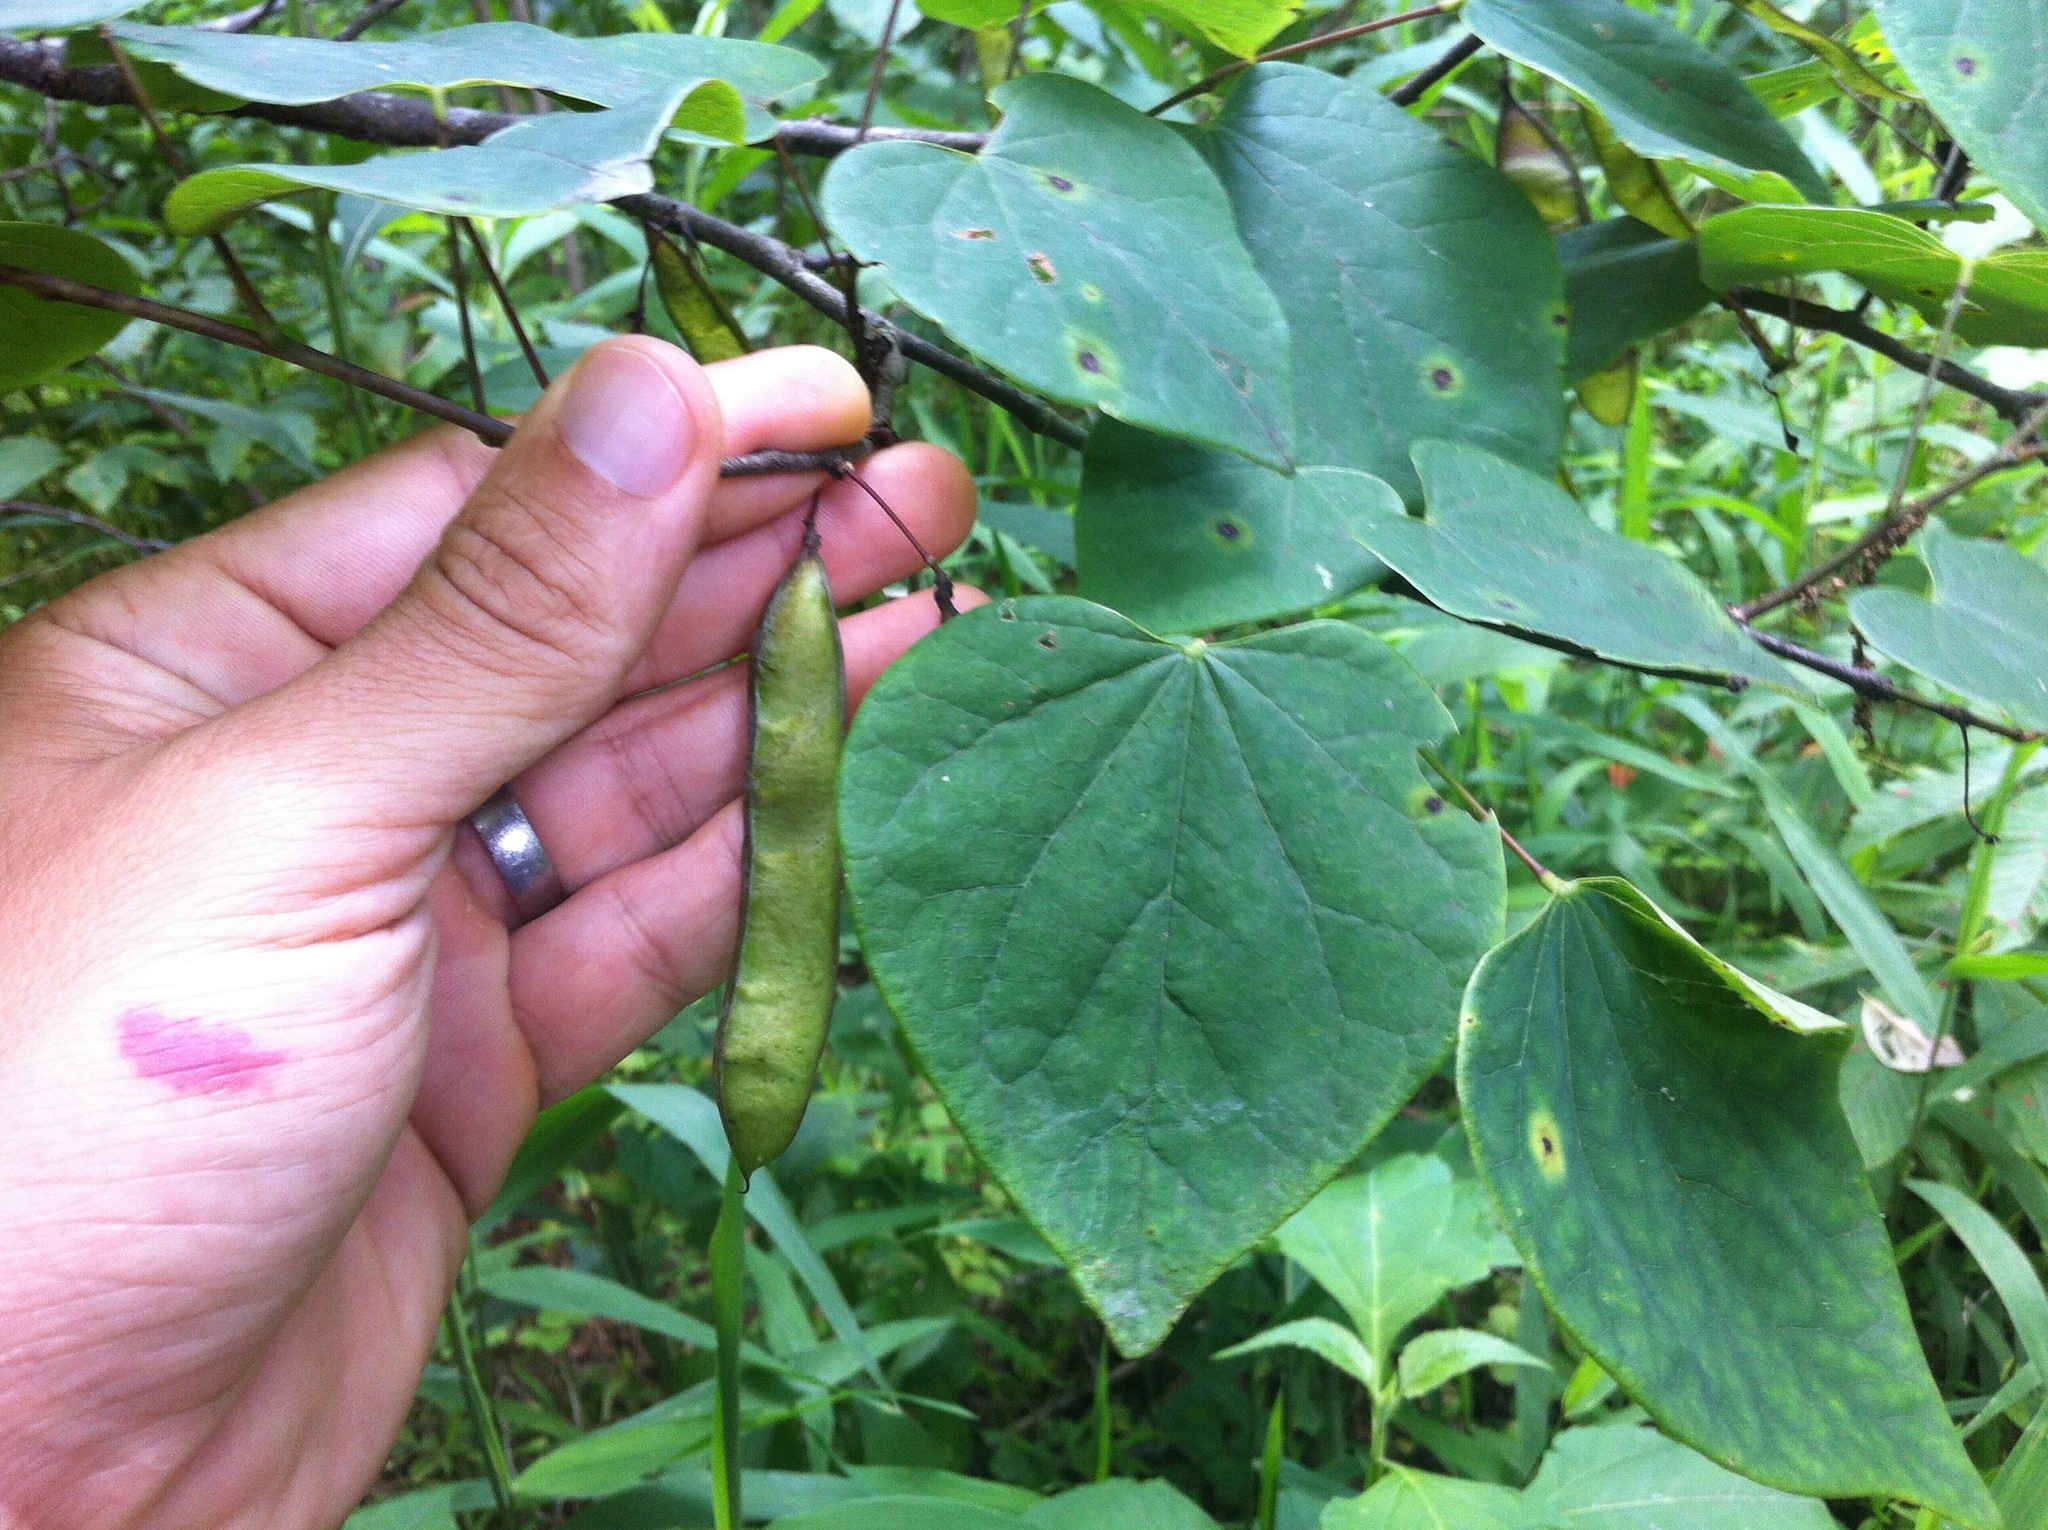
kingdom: Plantae
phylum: Tracheophyta
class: Magnoliopsida
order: Fabales
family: Fabaceae
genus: Cercis
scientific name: Cercis canadensis
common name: Eastern redbud
